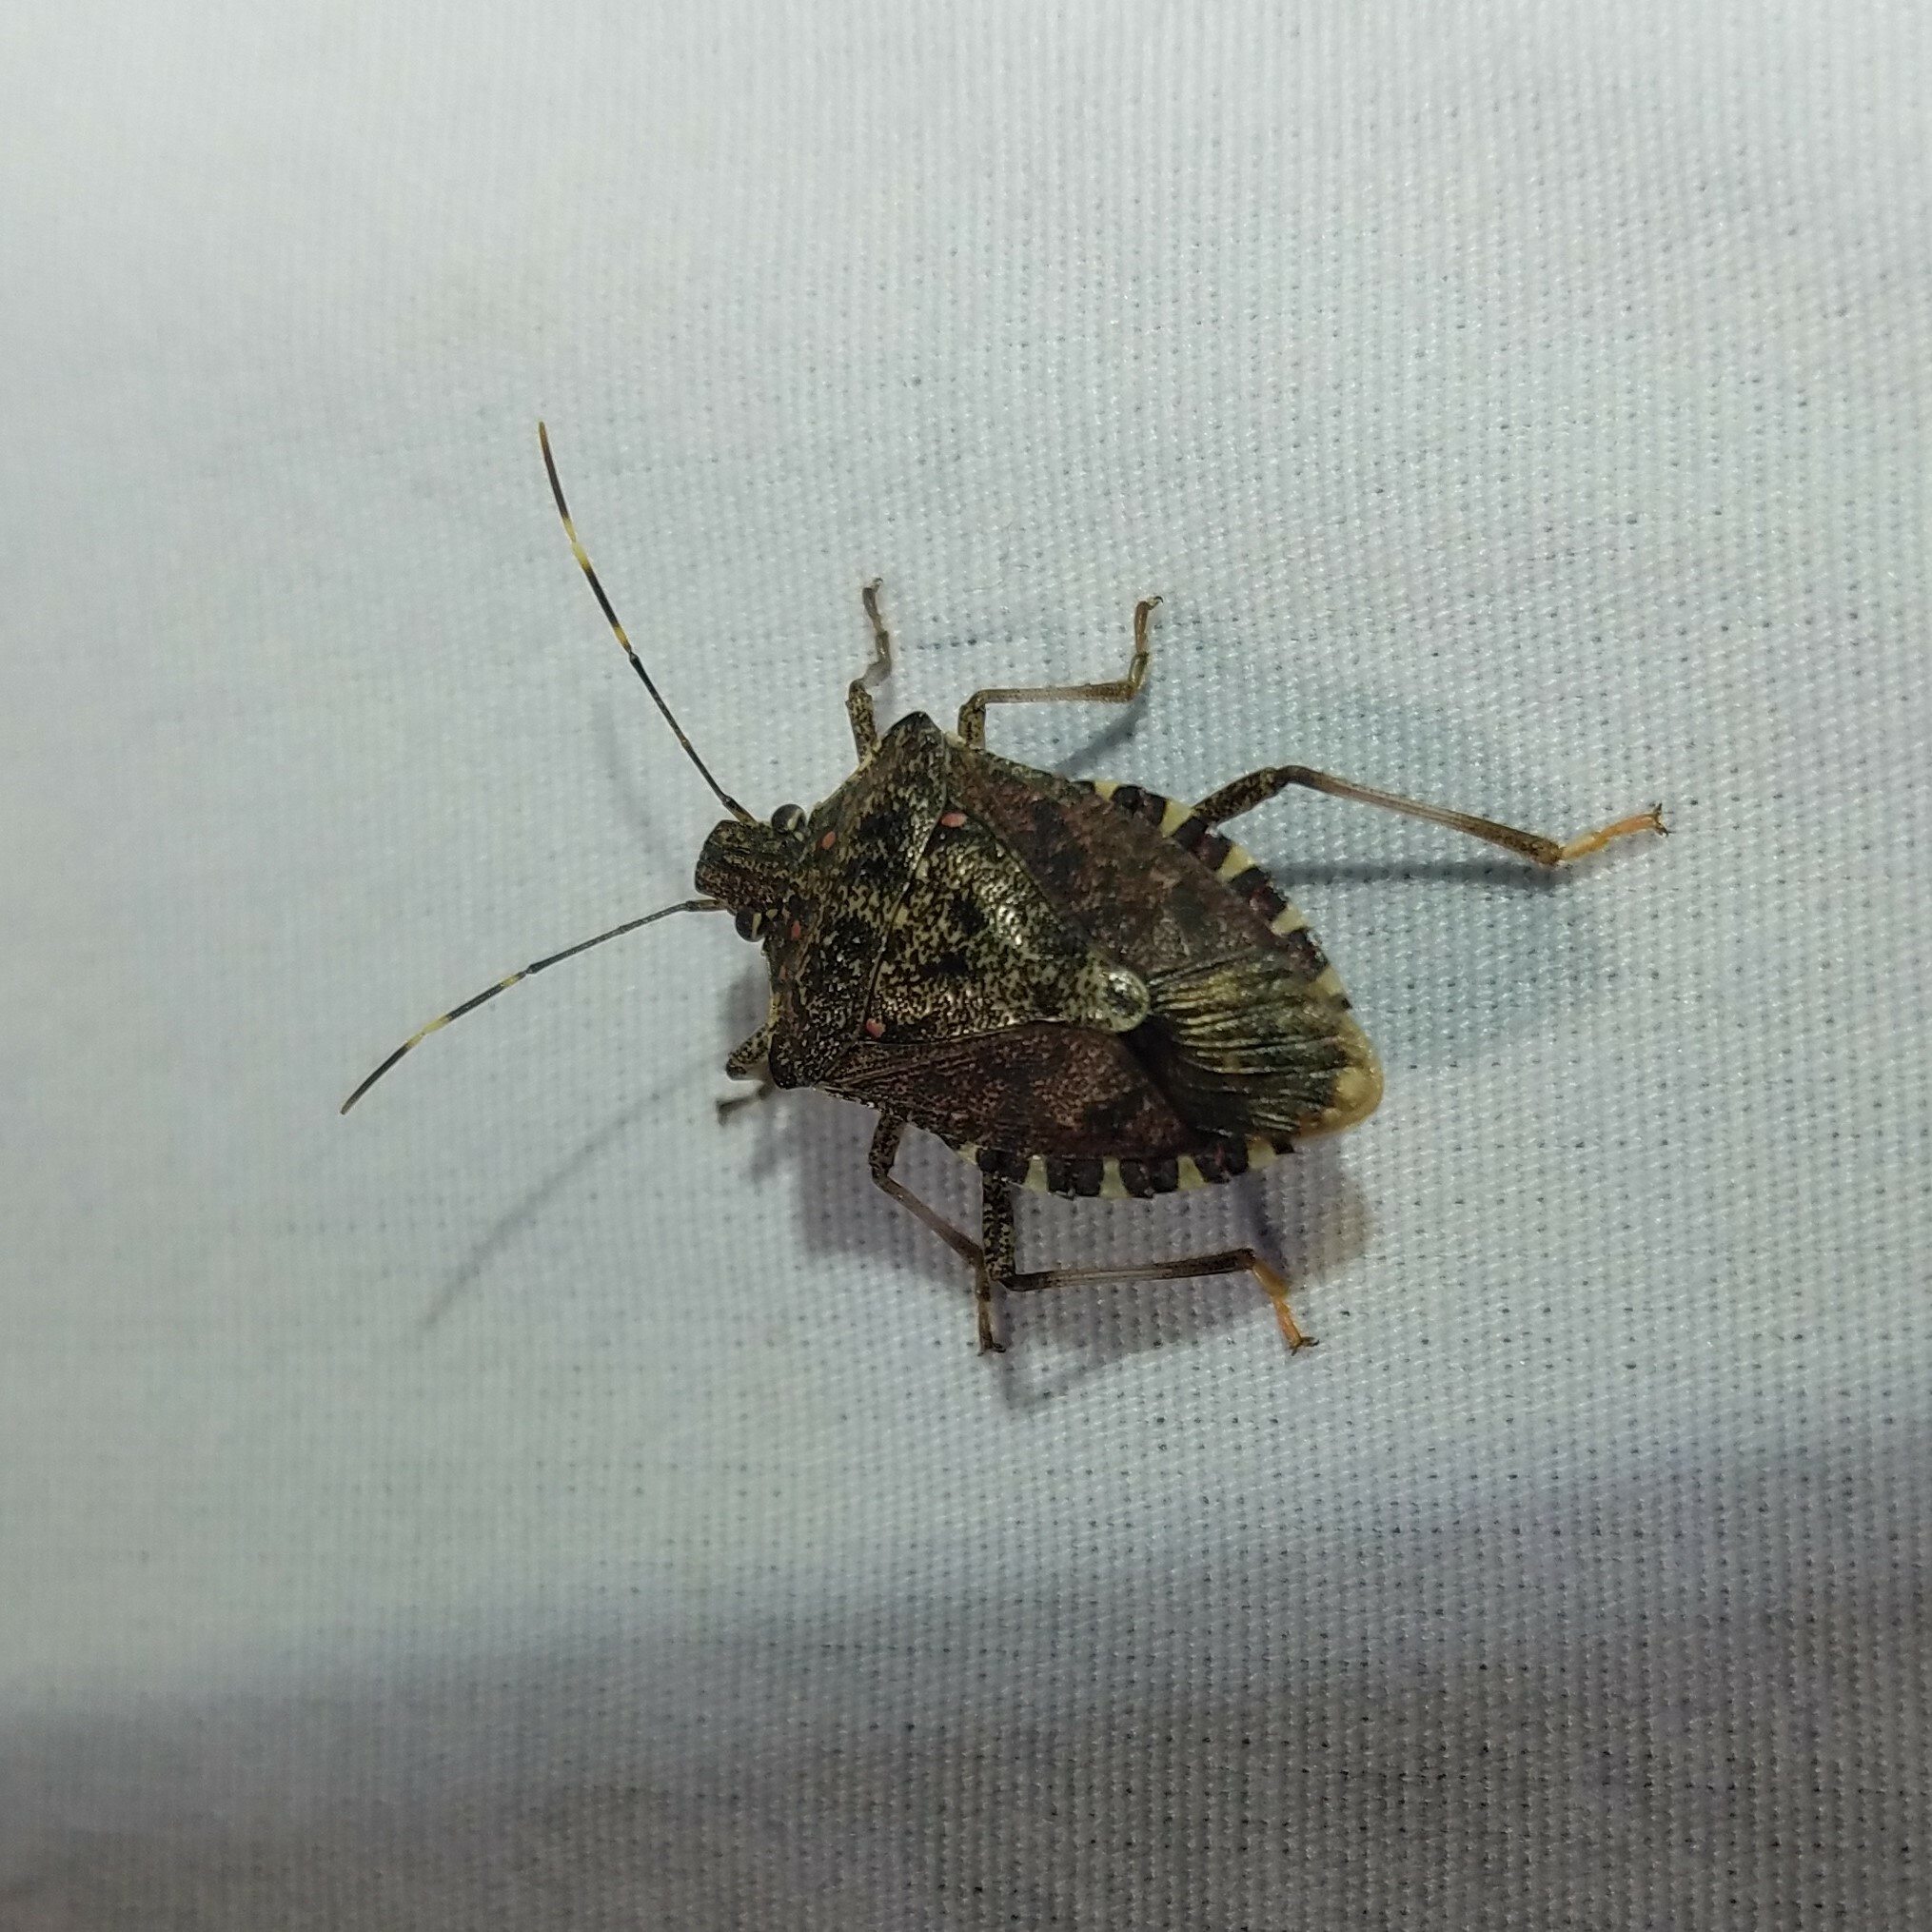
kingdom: Animalia
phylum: Arthropoda
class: Insecta
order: Hemiptera
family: Pentatomidae
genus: Halyomorpha
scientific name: Halyomorpha halys
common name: Brown marmorated stink bug
